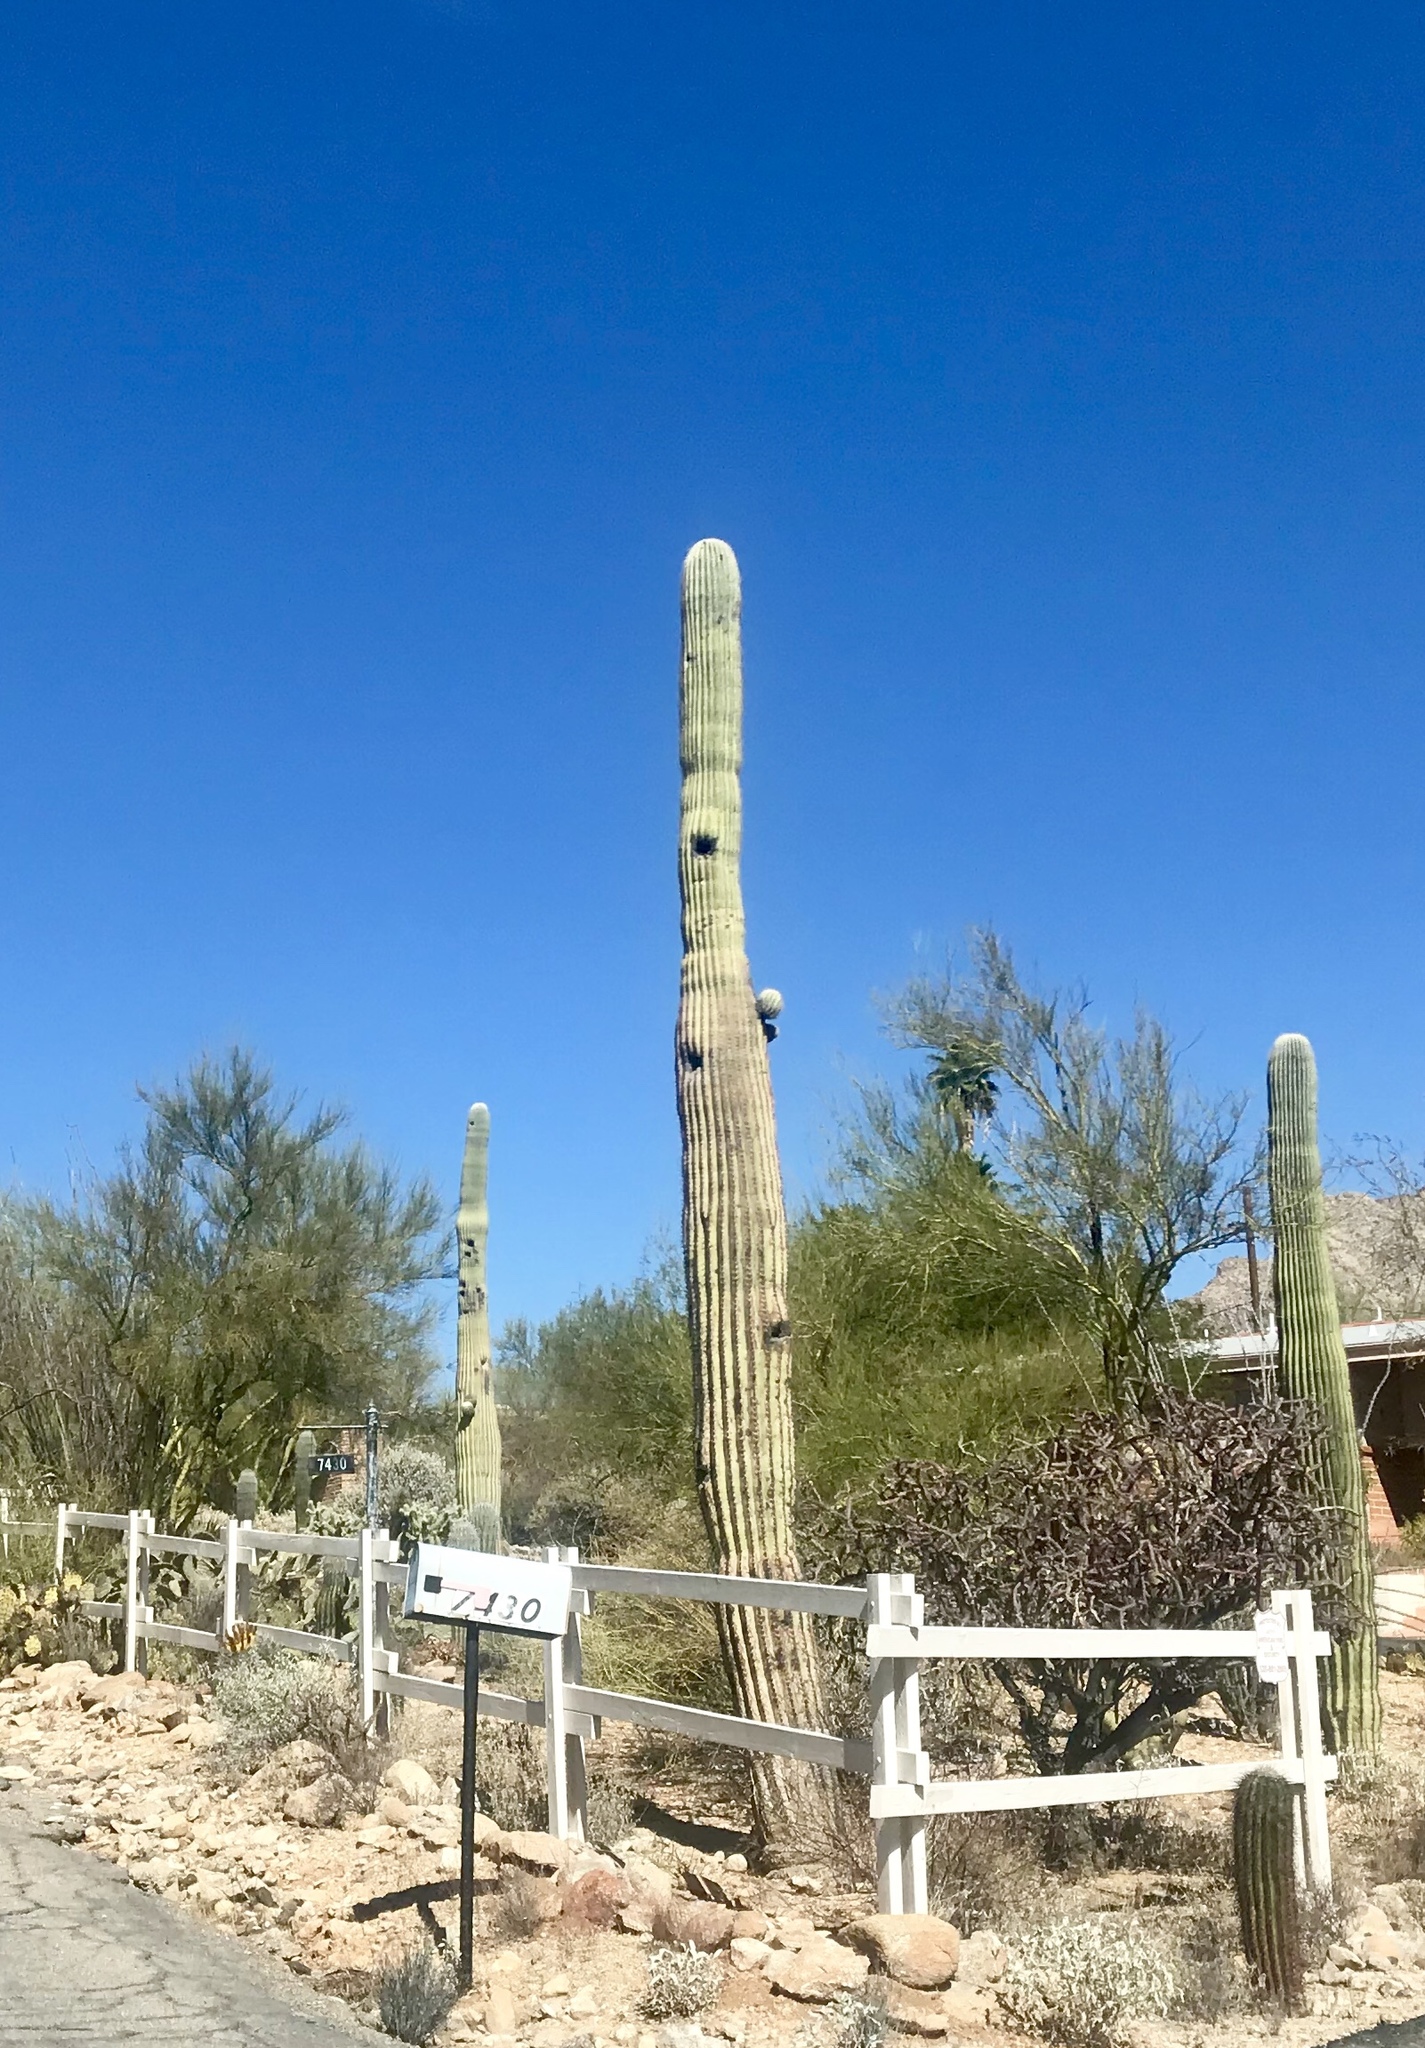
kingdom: Plantae
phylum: Tracheophyta
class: Magnoliopsida
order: Caryophyllales
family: Cactaceae
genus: Carnegiea
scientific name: Carnegiea gigantea
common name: Saguaro
